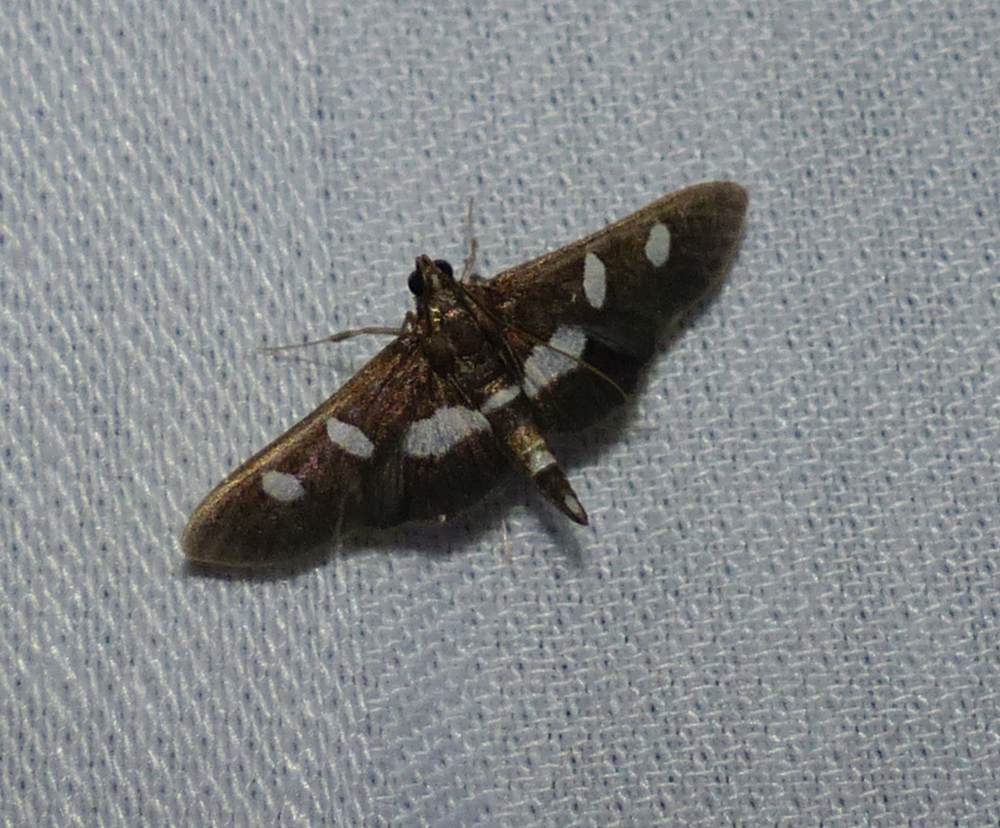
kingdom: Animalia
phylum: Arthropoda
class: Insecta
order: Lepidoptera
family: Crambidae
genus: Desmia
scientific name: Desmia
